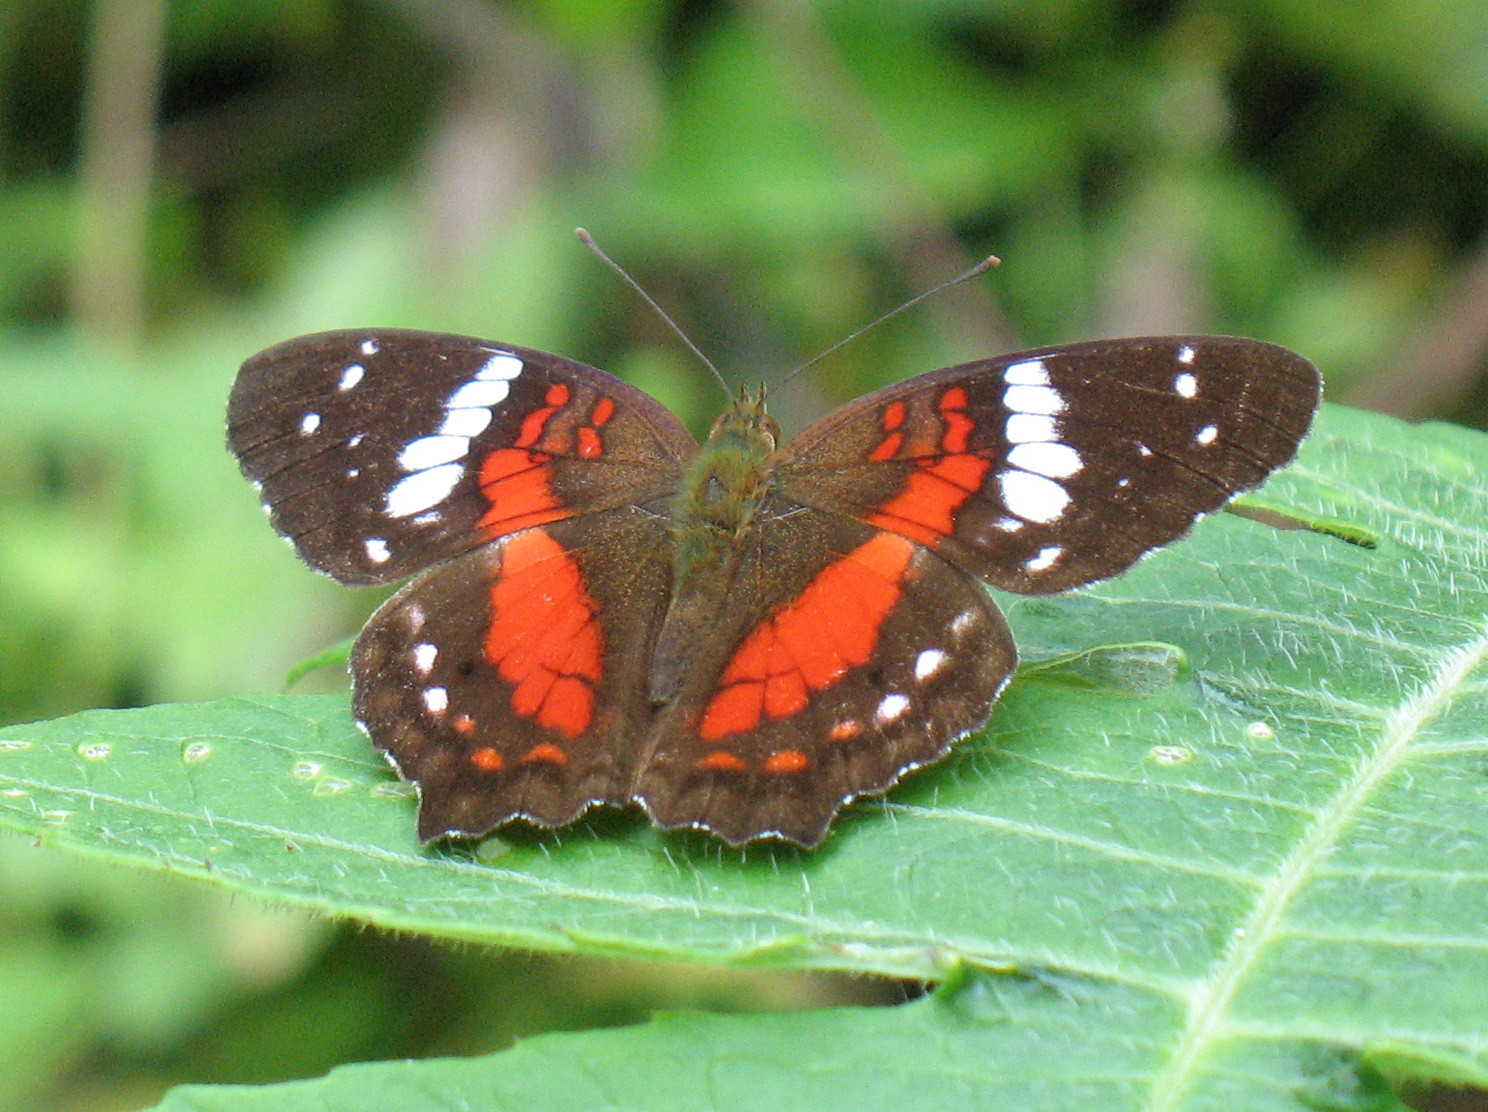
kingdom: Animalia
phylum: Arthropoda
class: Insecta
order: Lepidoptera
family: Nymphalidae
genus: Anartia
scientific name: Anartia amathea
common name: Red peacock
